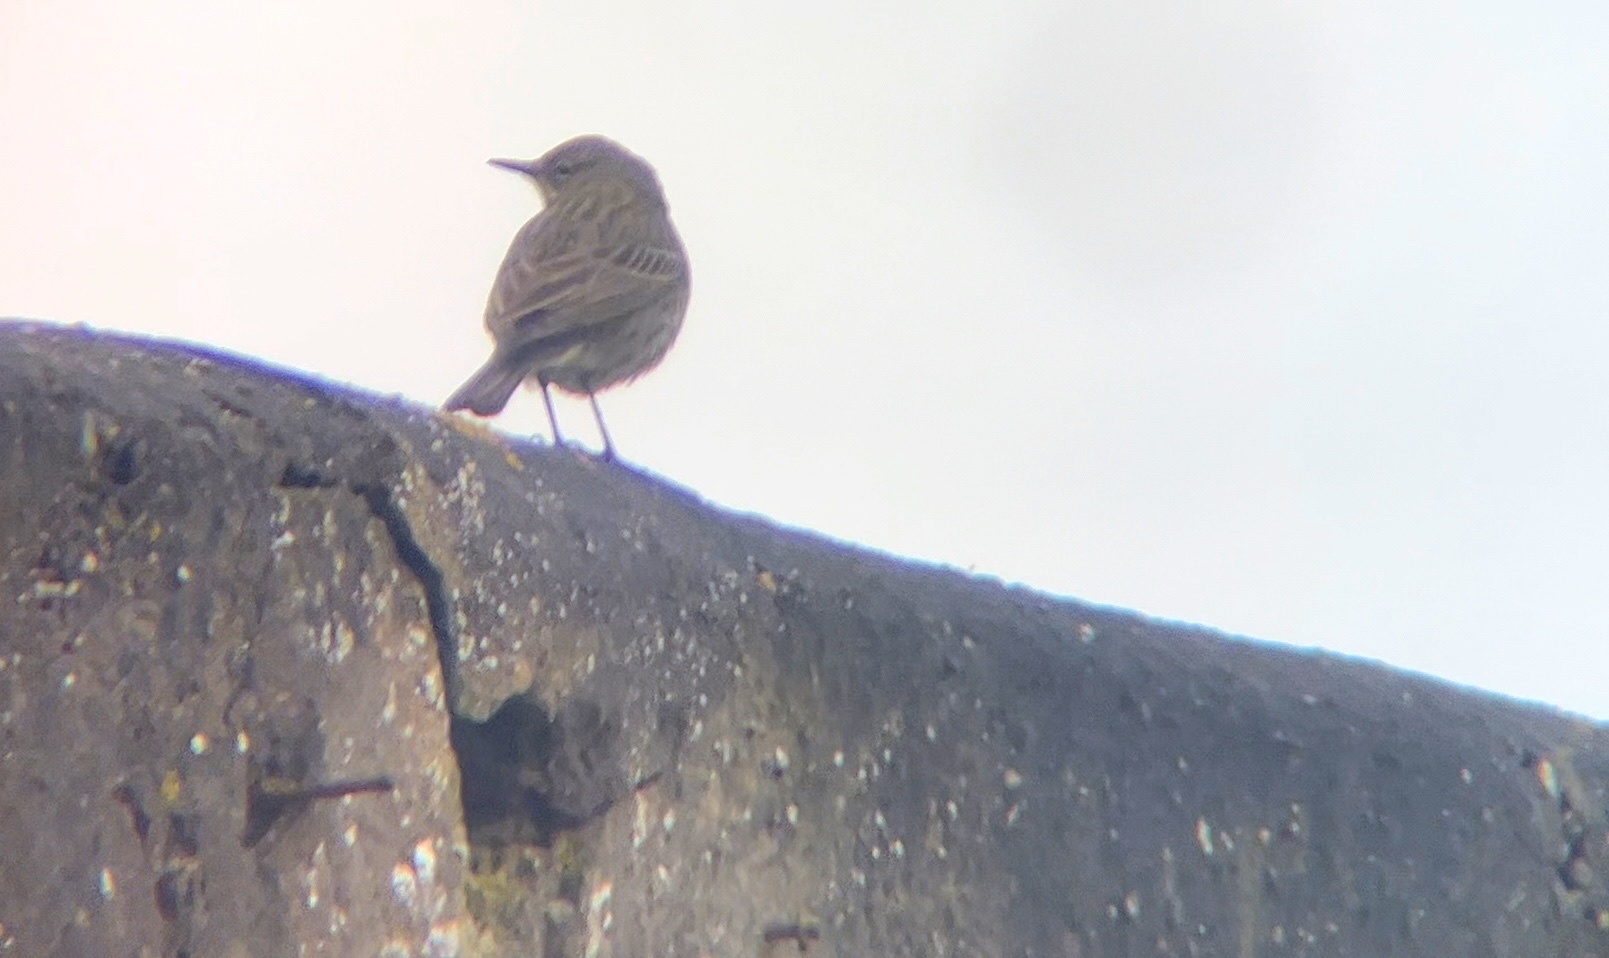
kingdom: Animalia
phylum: Chordata
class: Aves
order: Passeriformes
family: Motacillidae
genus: Anthus
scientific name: Anthus petrosus
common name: Eurasian rock pipit
